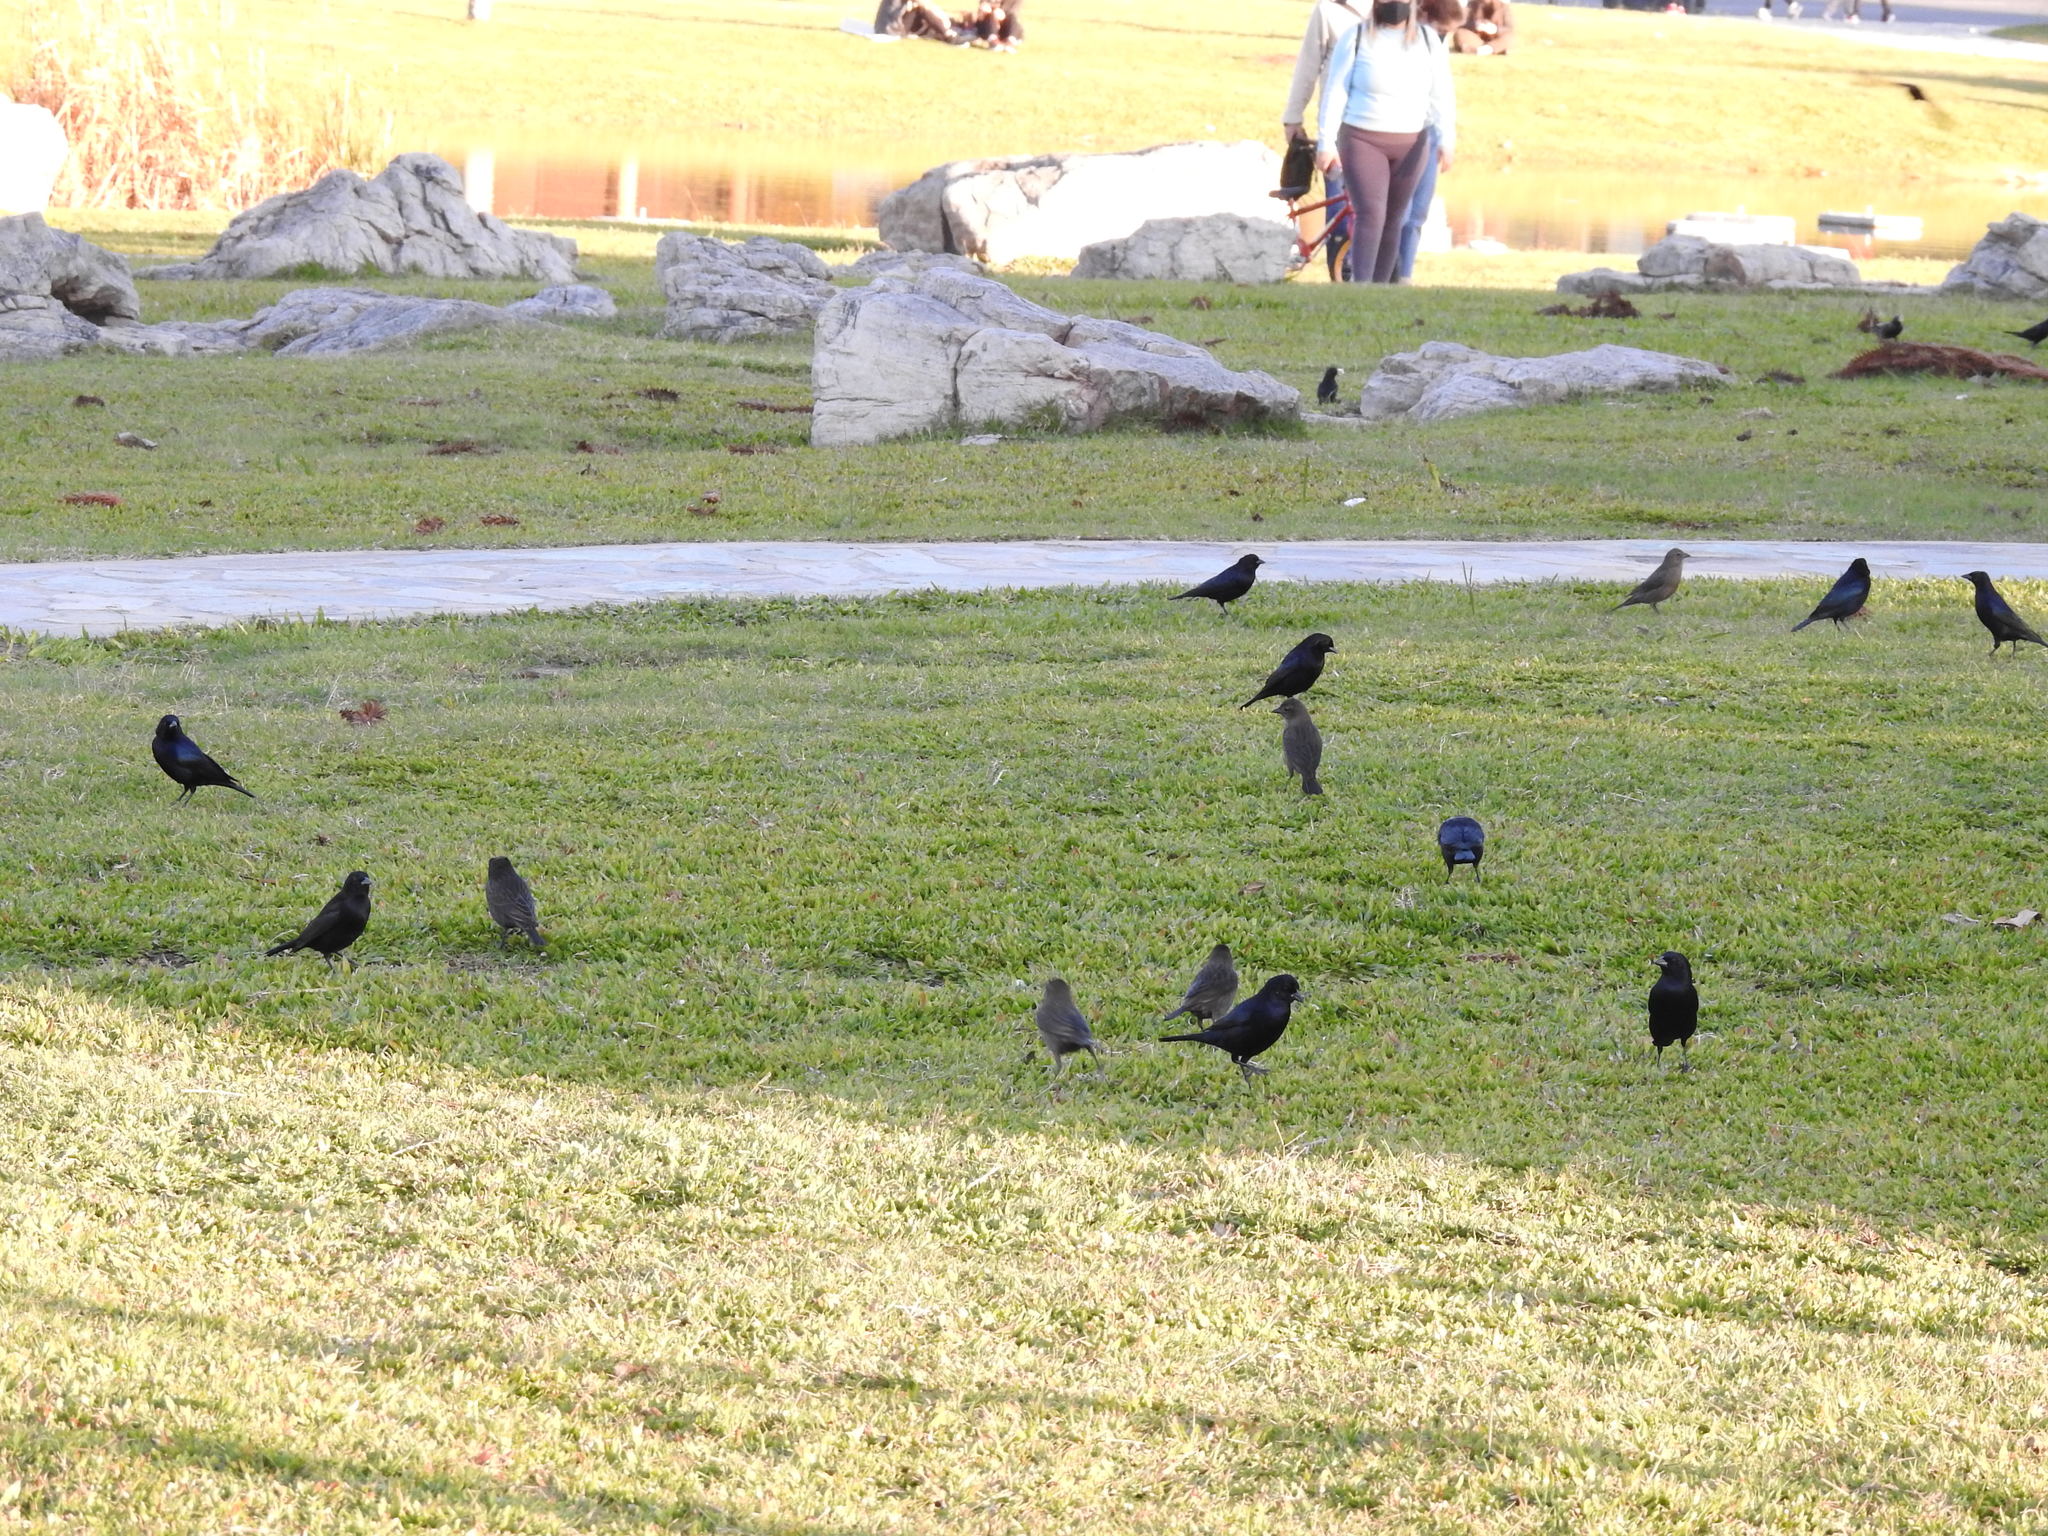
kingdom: Animalia
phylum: Chordata
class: Aves
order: Passeriformes
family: Icteridae
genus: Molothrus
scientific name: Molothrus bonariensis
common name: Shiny cowbird
